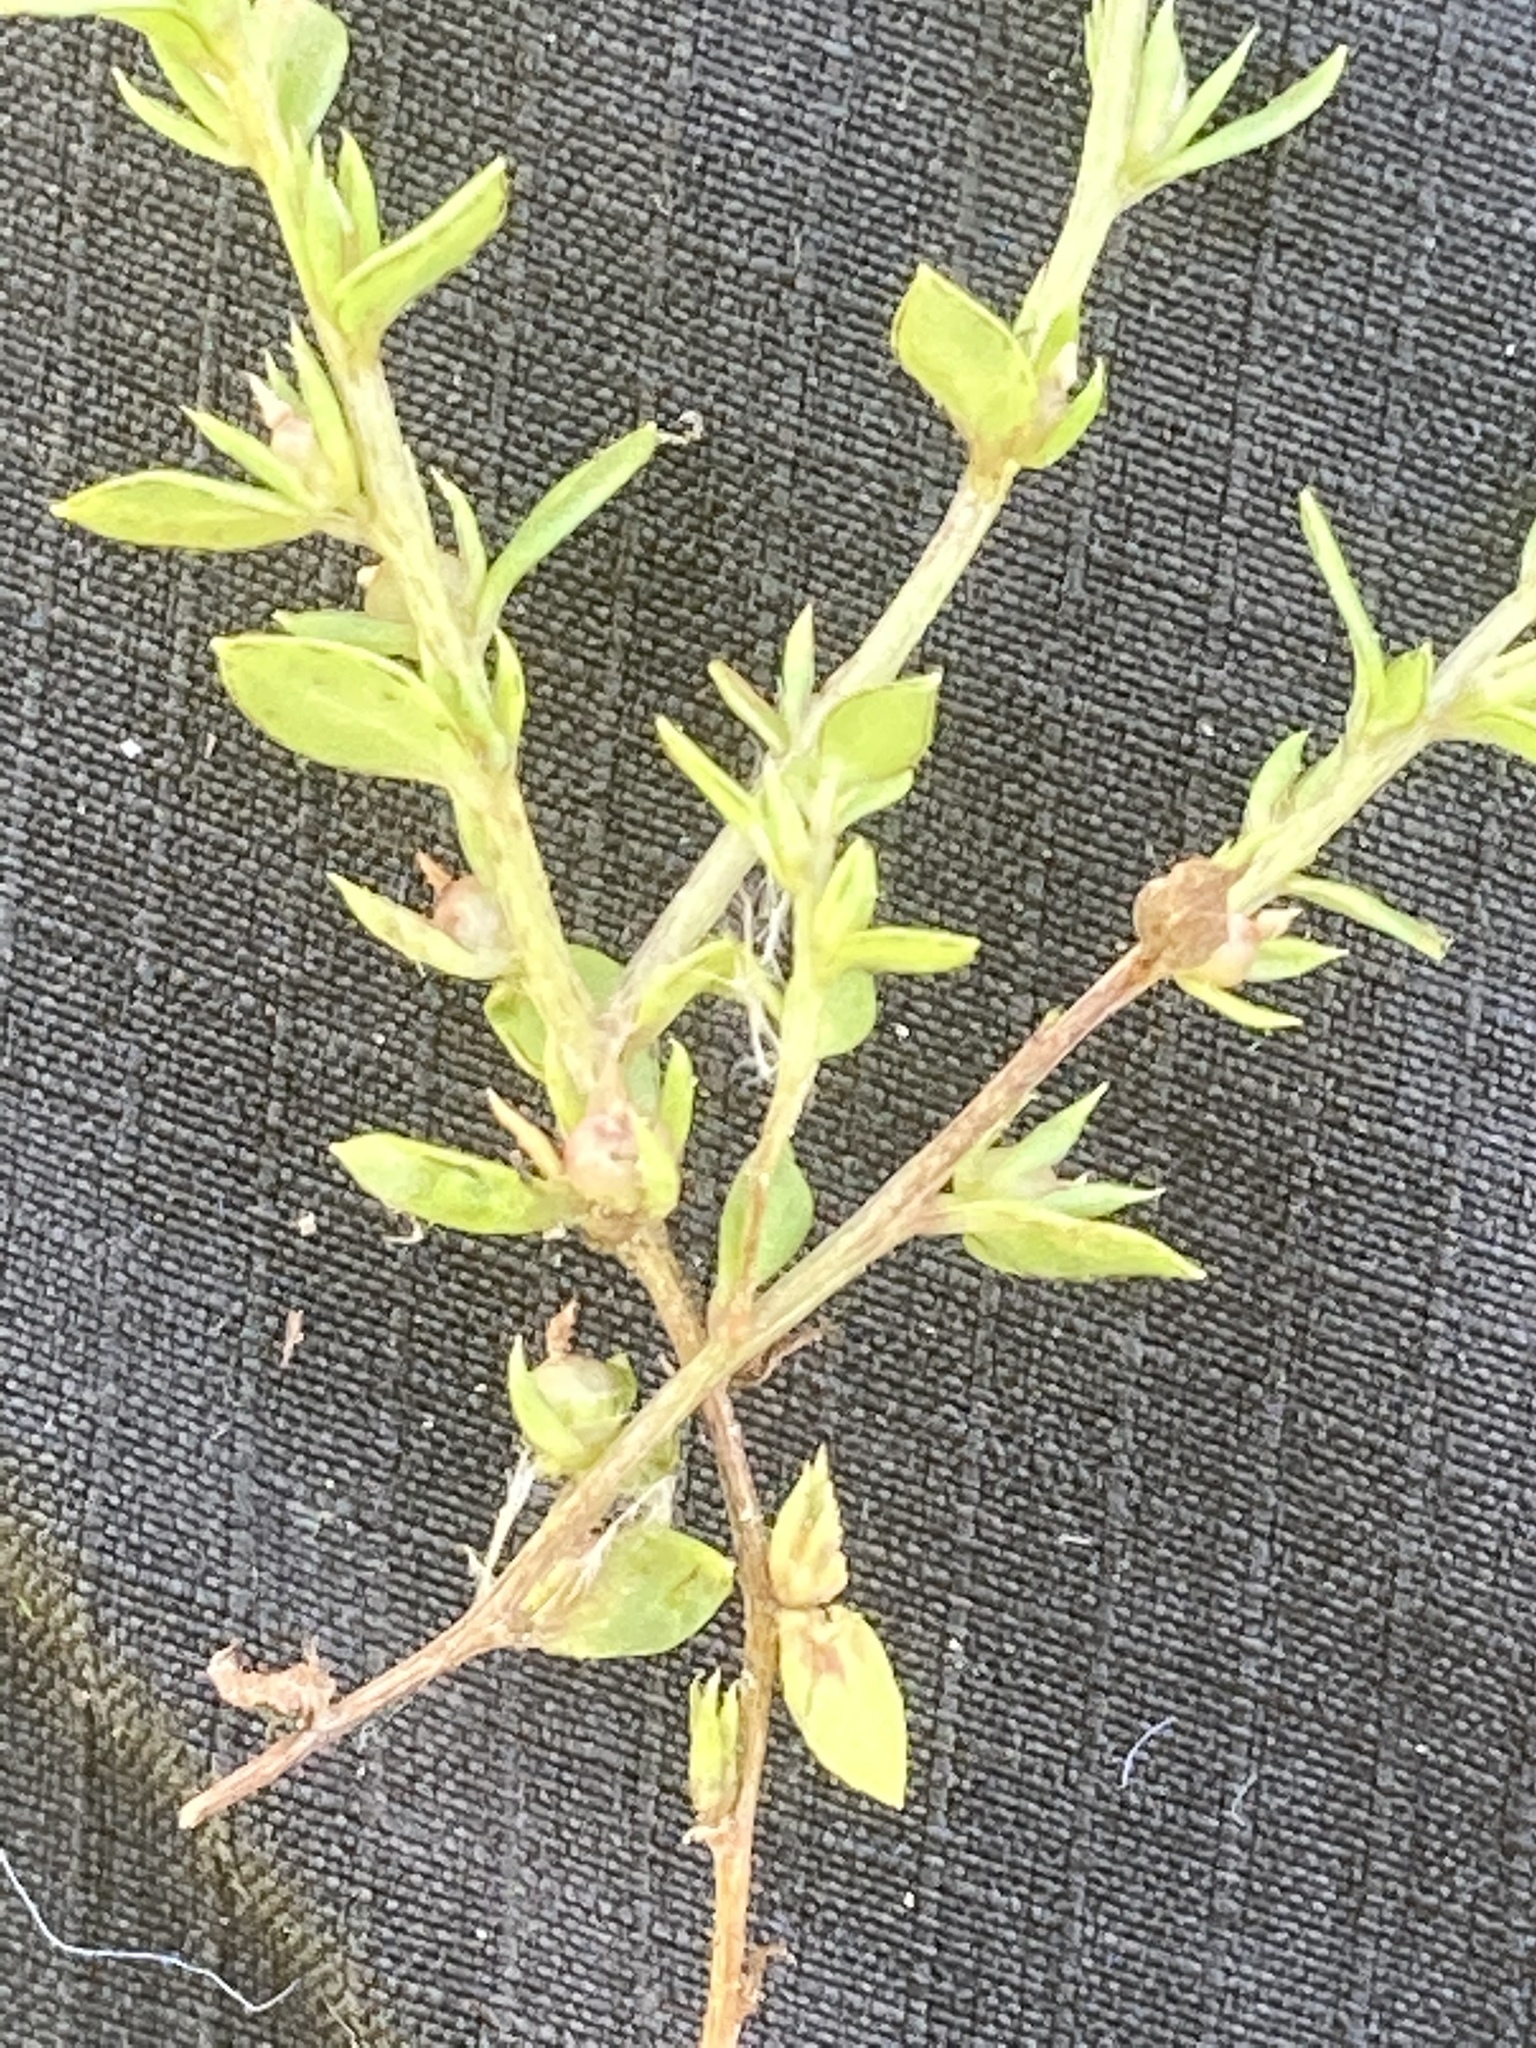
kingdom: Plantae
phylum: Tracheophyta
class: Magnoliopsida
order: Ericales
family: Primulaceae
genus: Lysimachia
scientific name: Lysimachia minima
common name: Chaffweed
